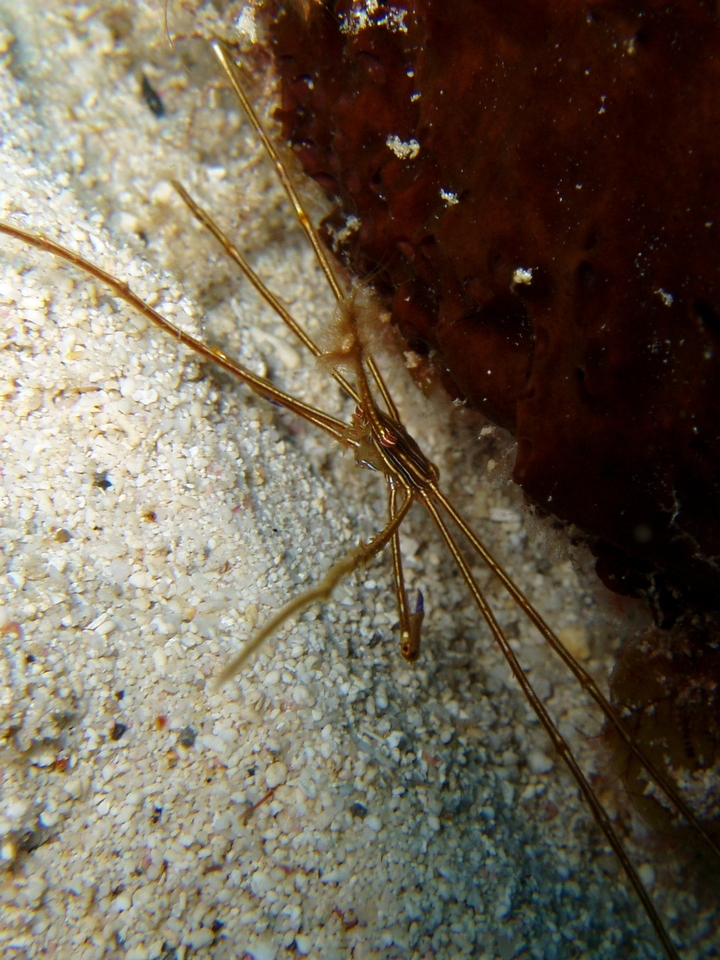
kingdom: Animalia
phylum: Arthropoda
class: Malacostraca
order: Decapoda
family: Inachoididae
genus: Stenorhynchus
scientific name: Stenorhynchus seticornis
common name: Arrow crab
